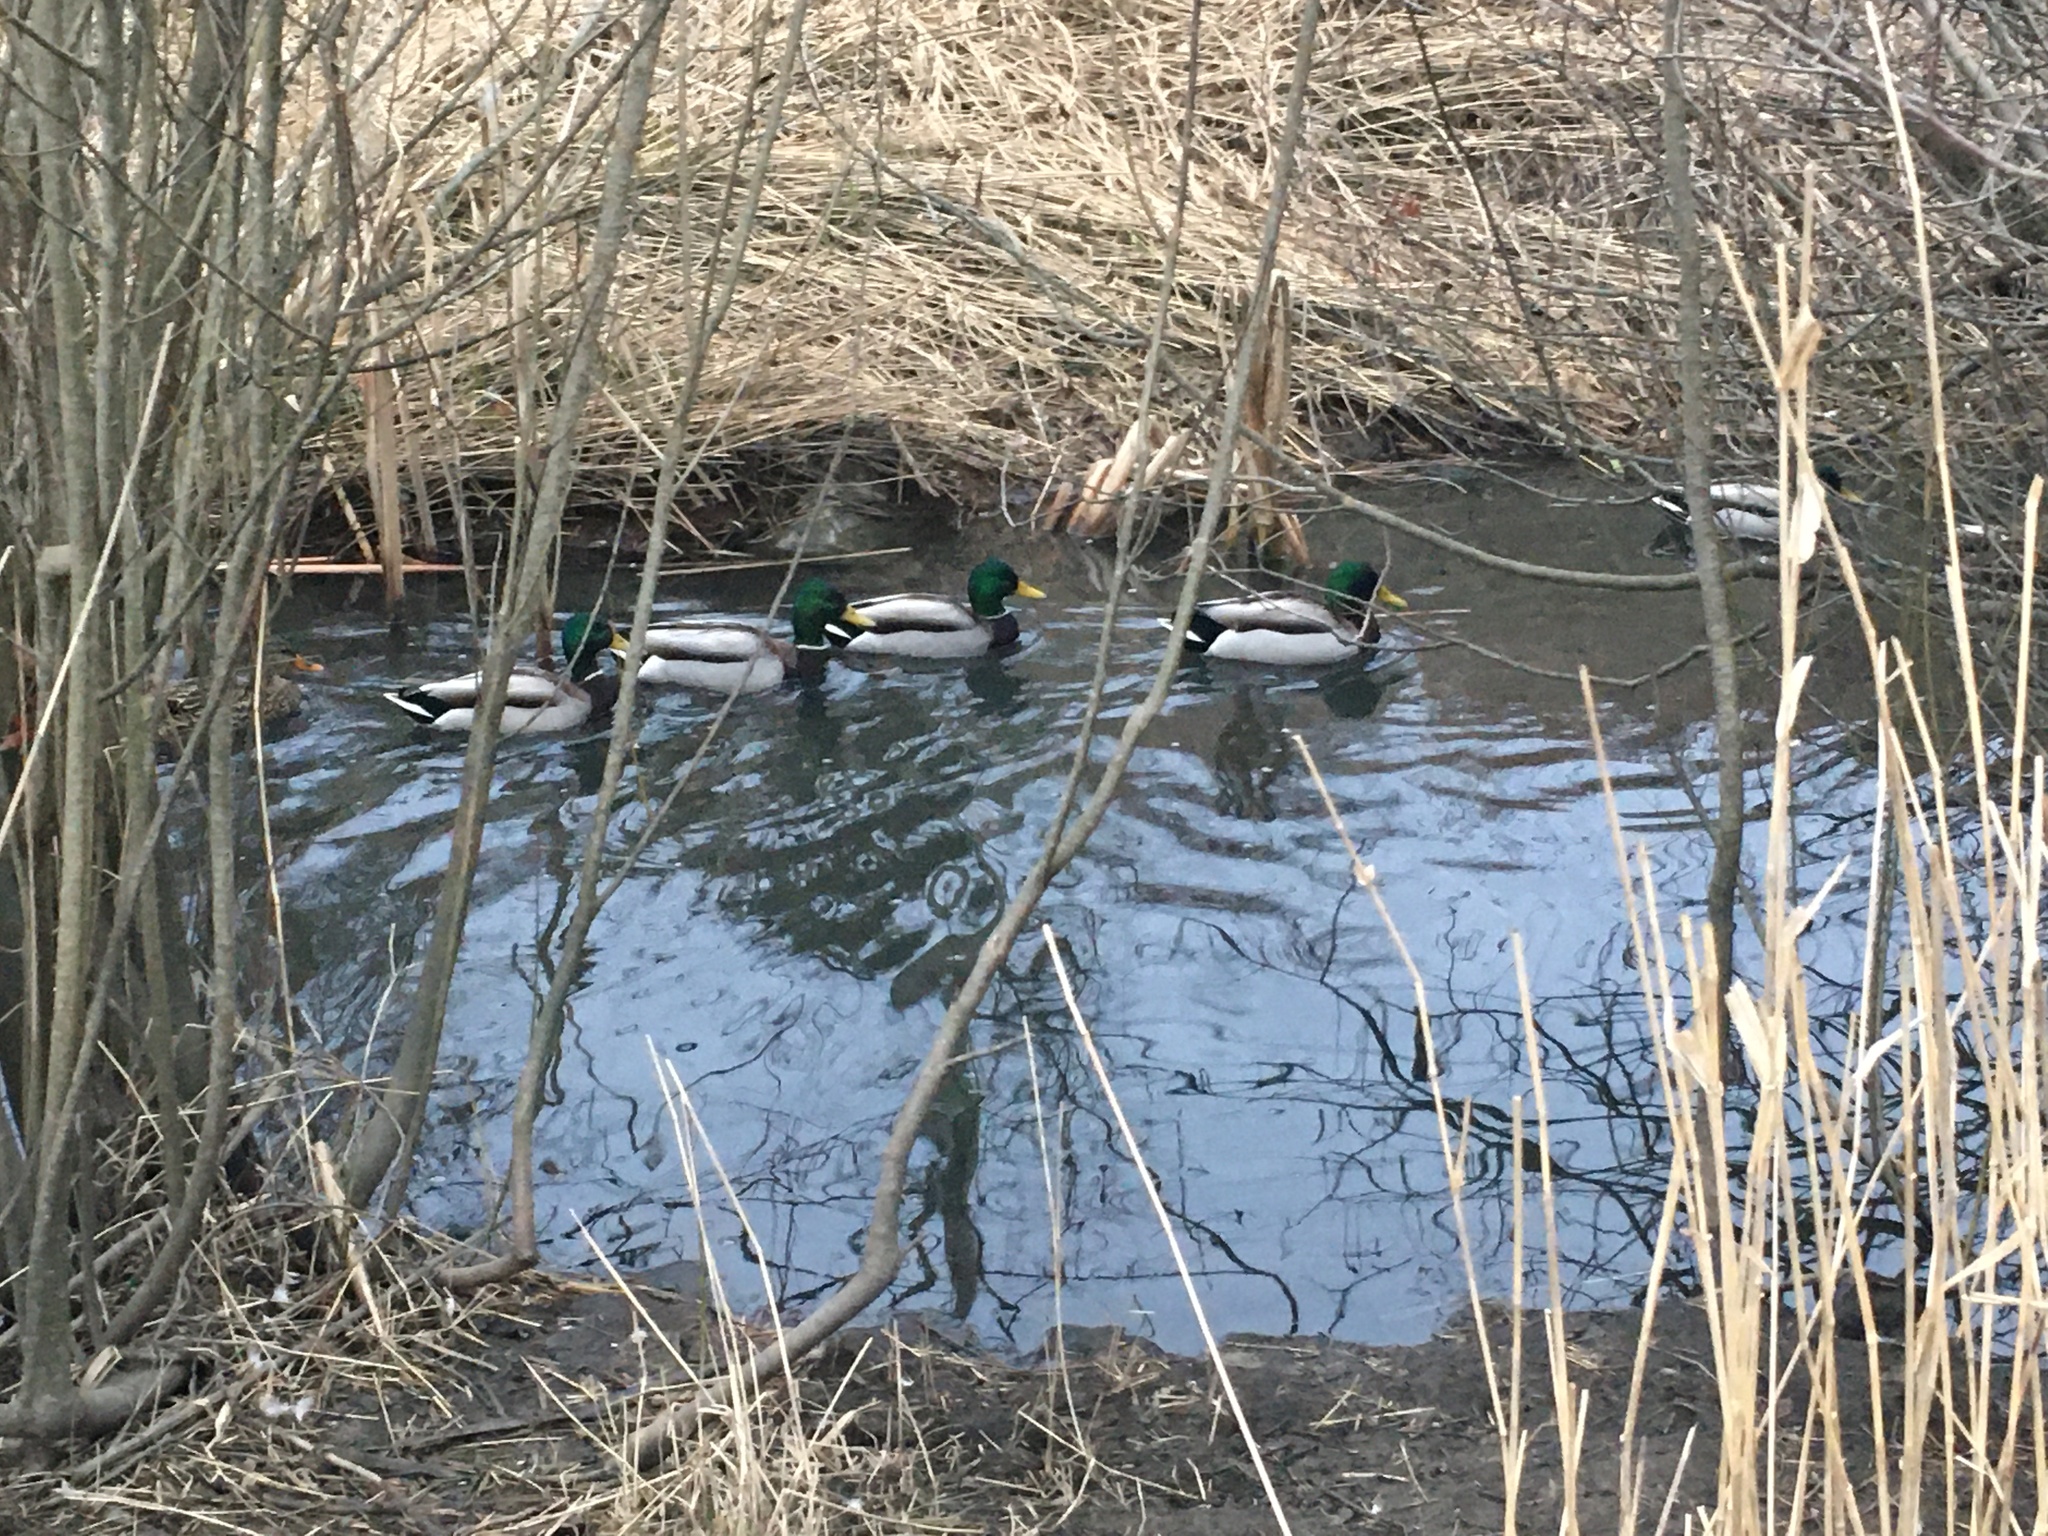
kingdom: Animalia
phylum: Chordata
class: Aves
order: Anseriformes
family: Anatidae
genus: Anas
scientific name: Anas platyrhynchos
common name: Mallard
